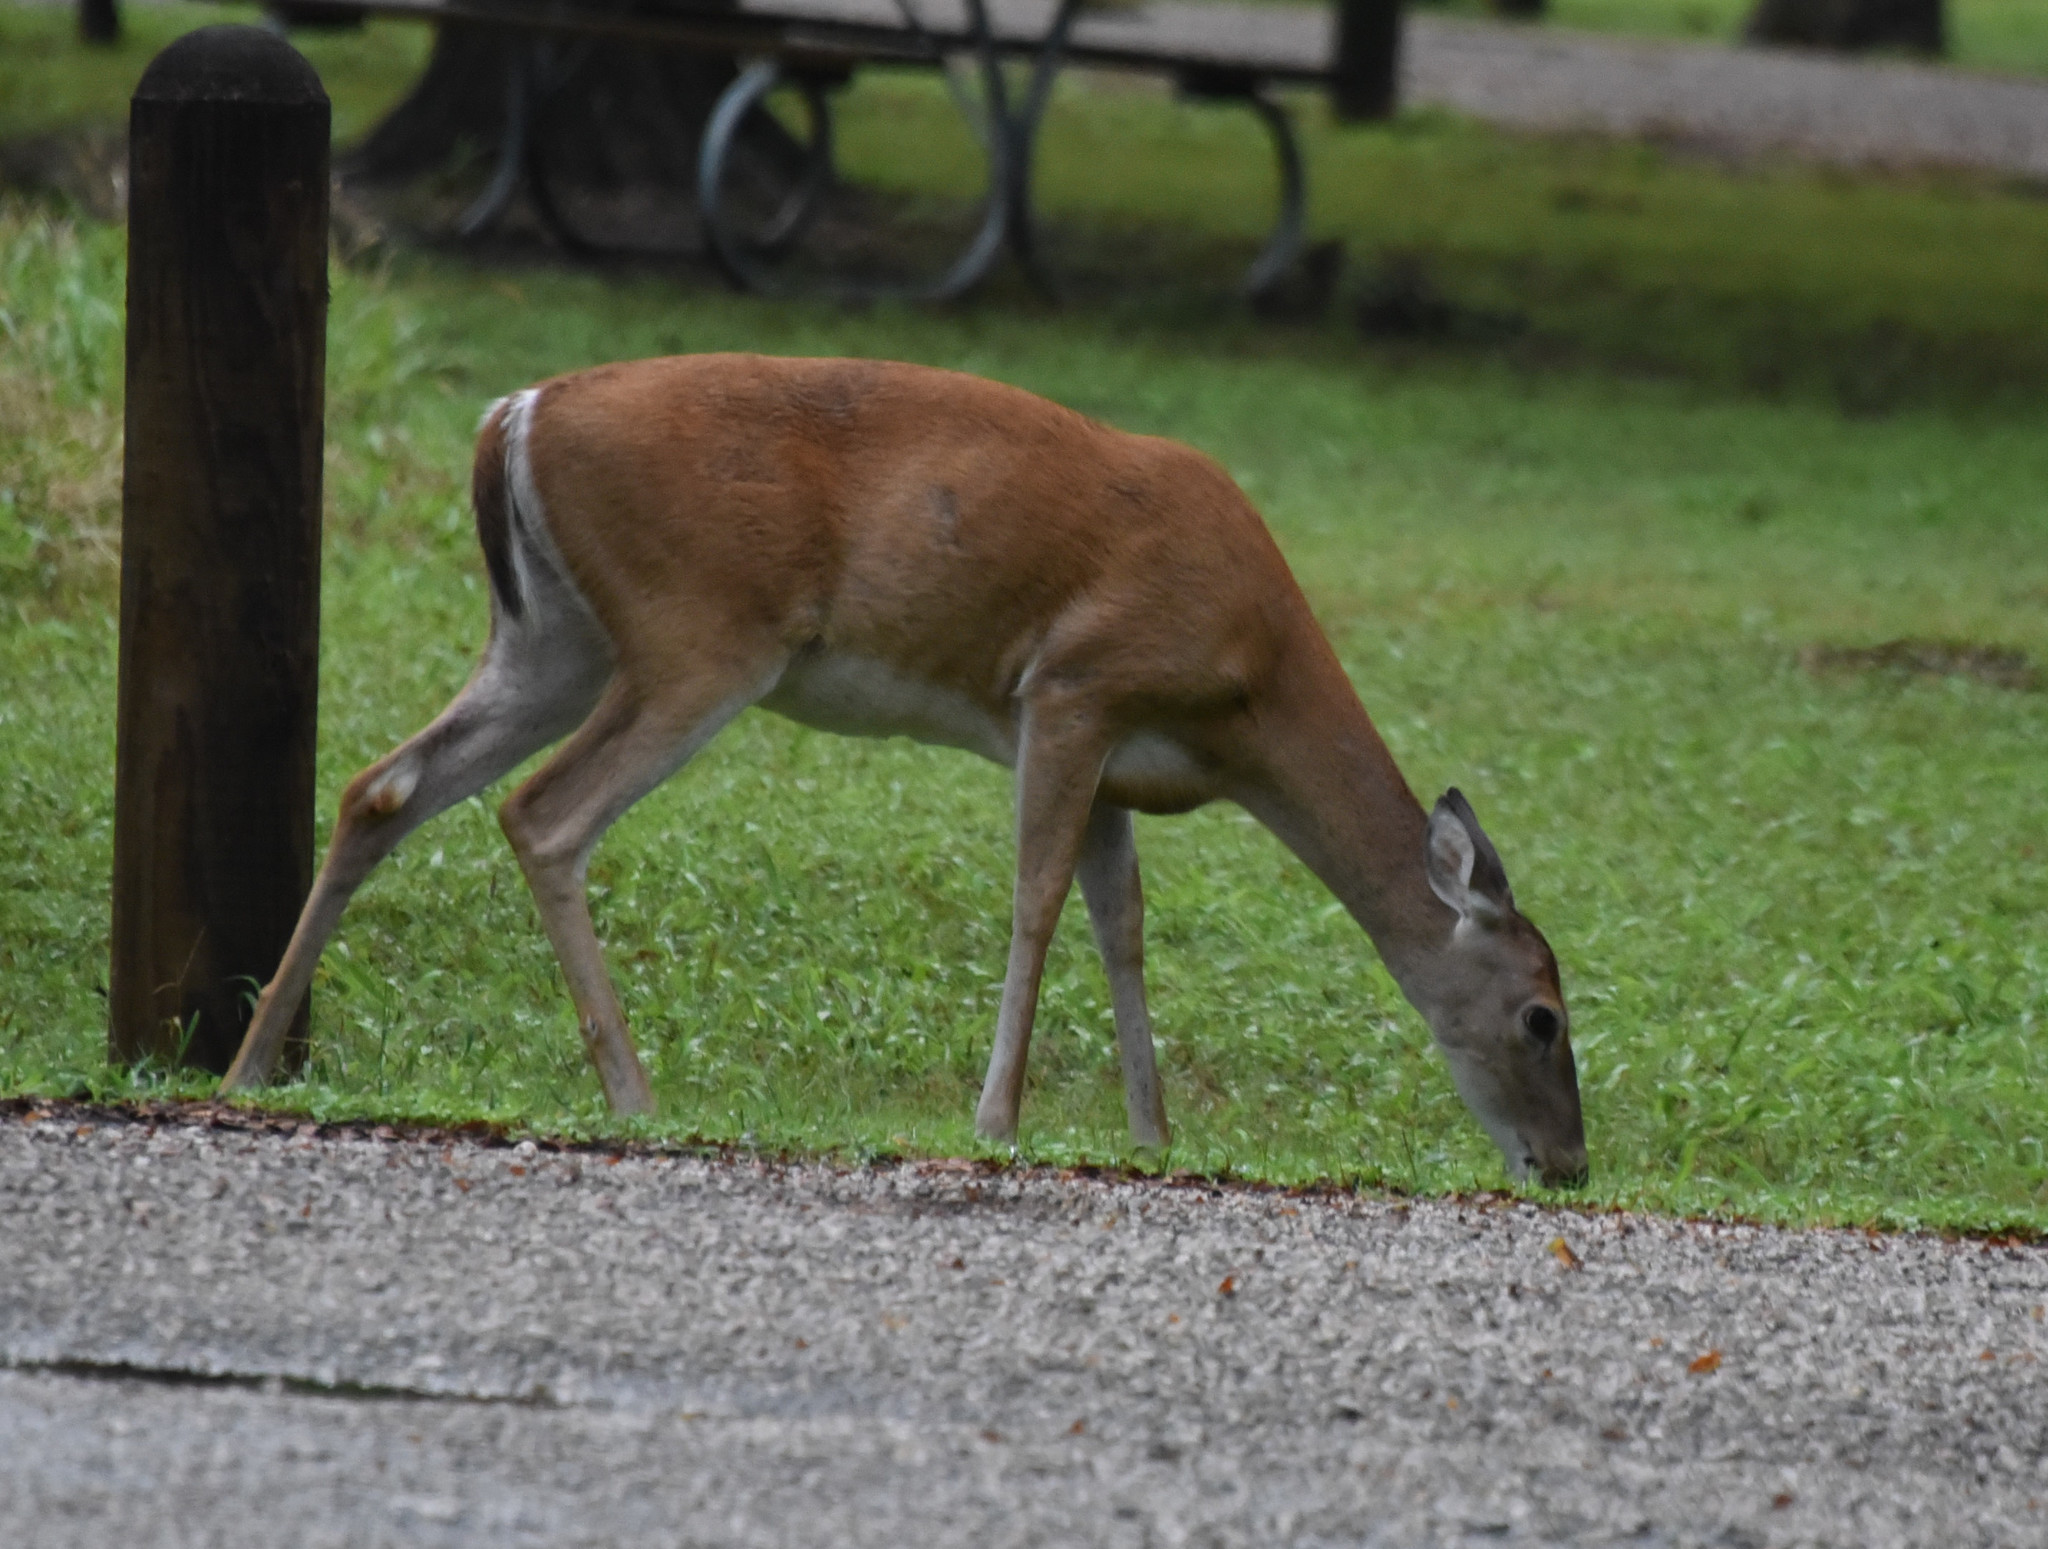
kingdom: Animalia
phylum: Chordata
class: Mammalia
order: Artiodactyla
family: Cervidae
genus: Odocoileus
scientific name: Odocoileus virginianus
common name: White-tailed deer
